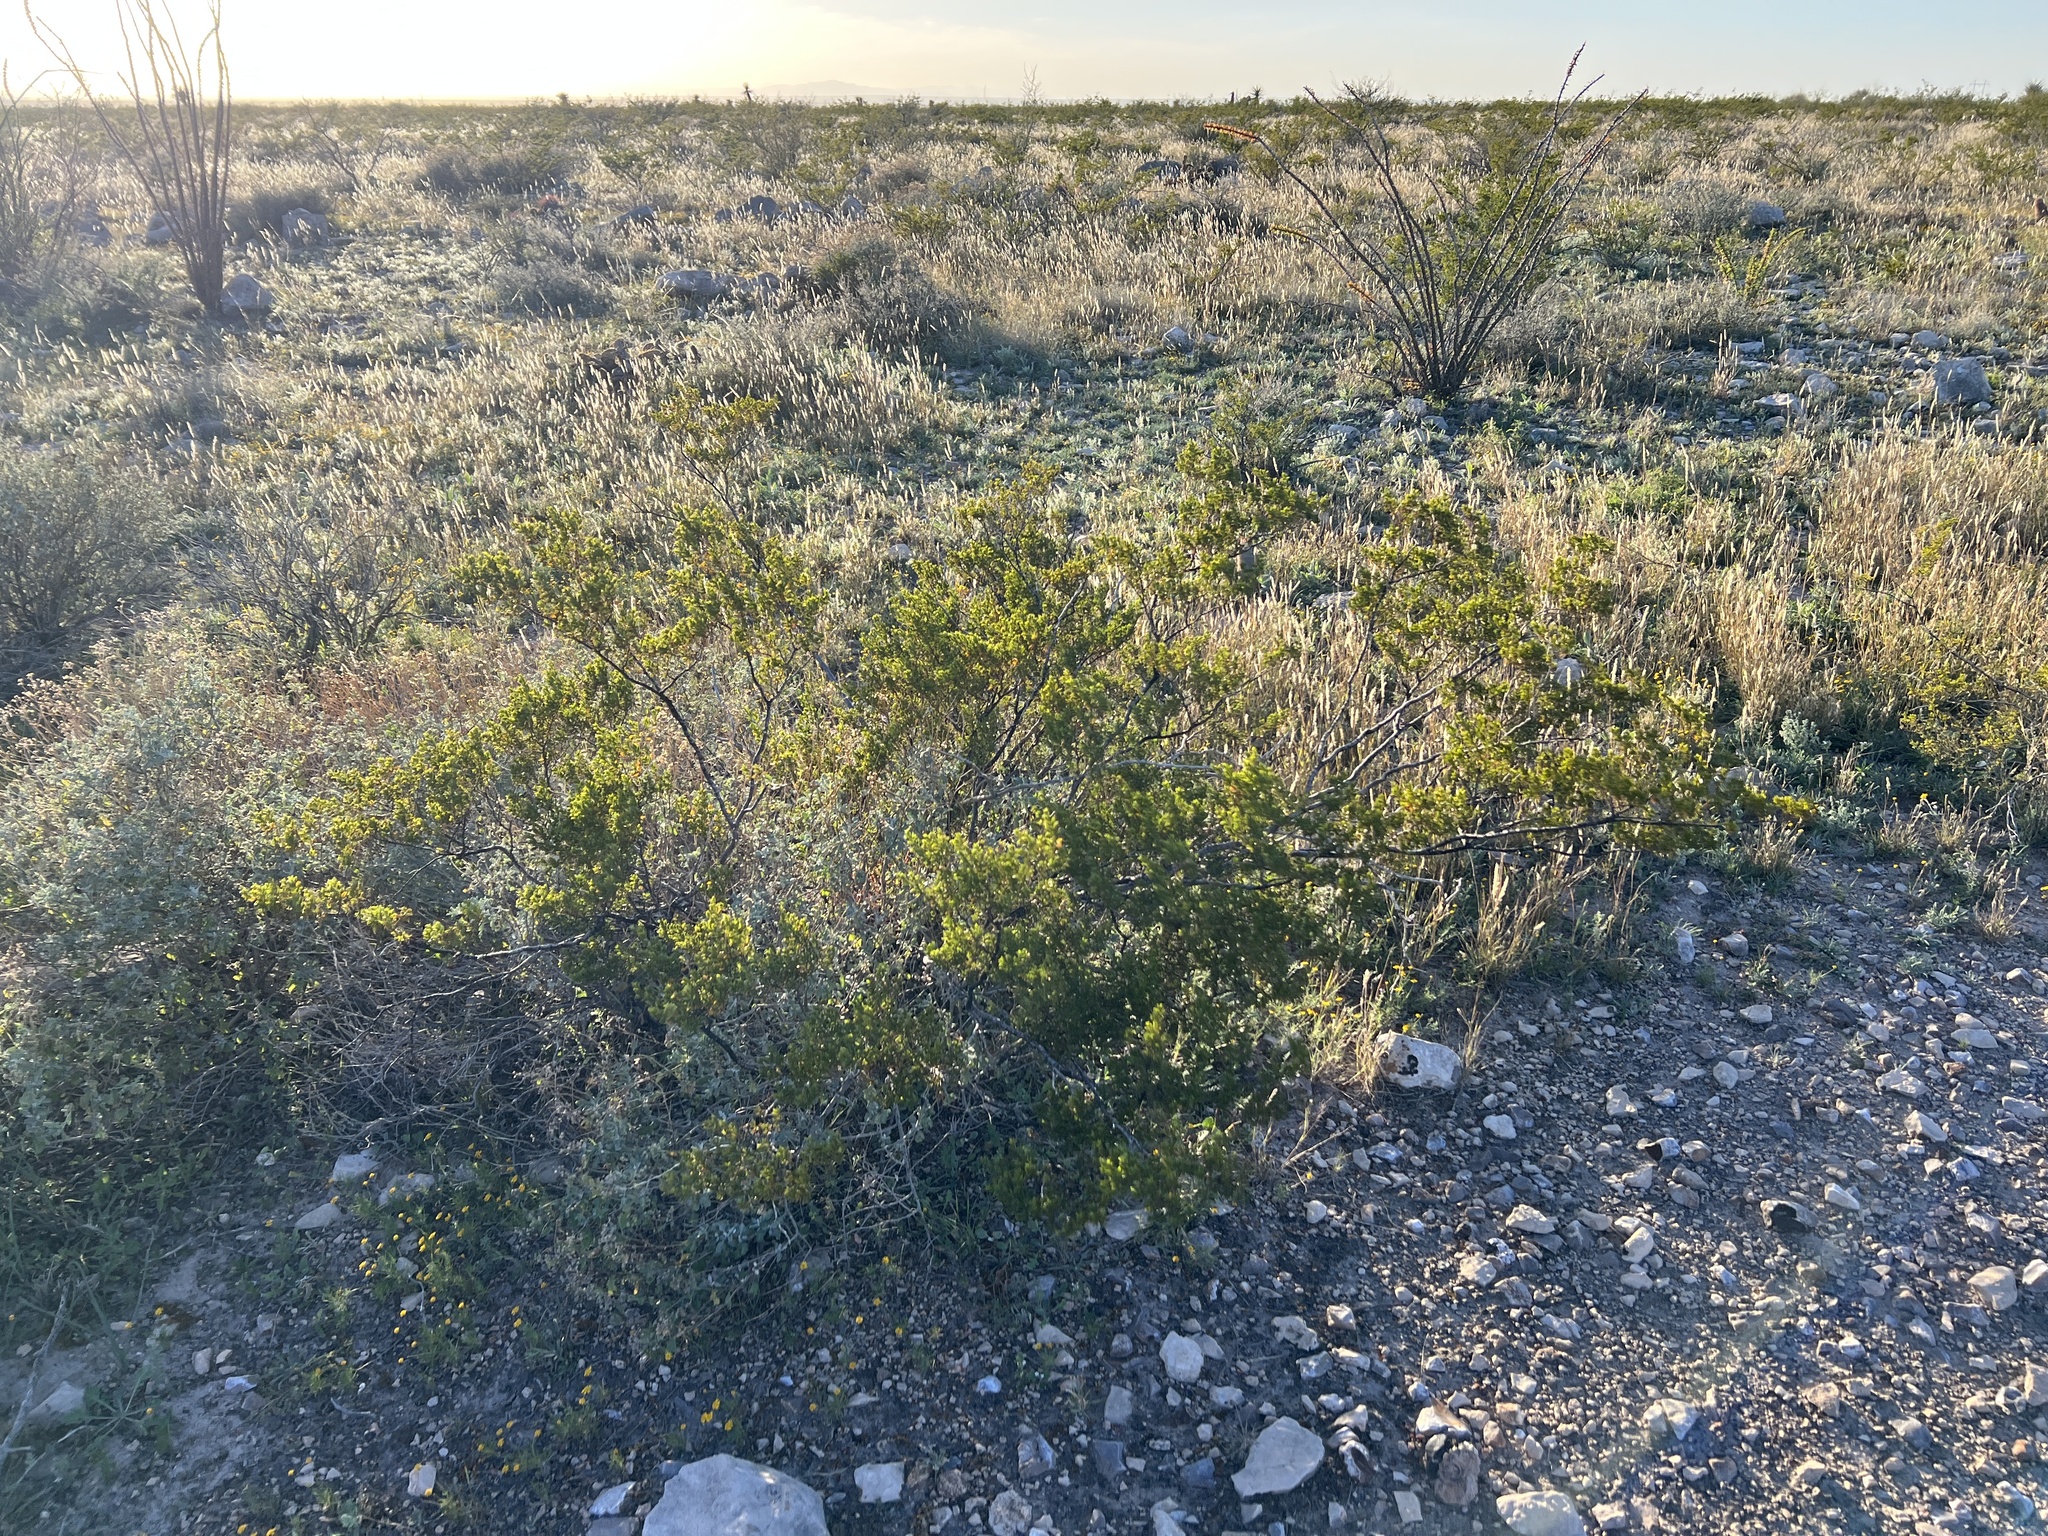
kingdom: Plantae
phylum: Tracheophyta
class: Magnoliopsida
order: Zygophyllales
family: Zygophyllaceae
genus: Larrea
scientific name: Larrea tridentata
